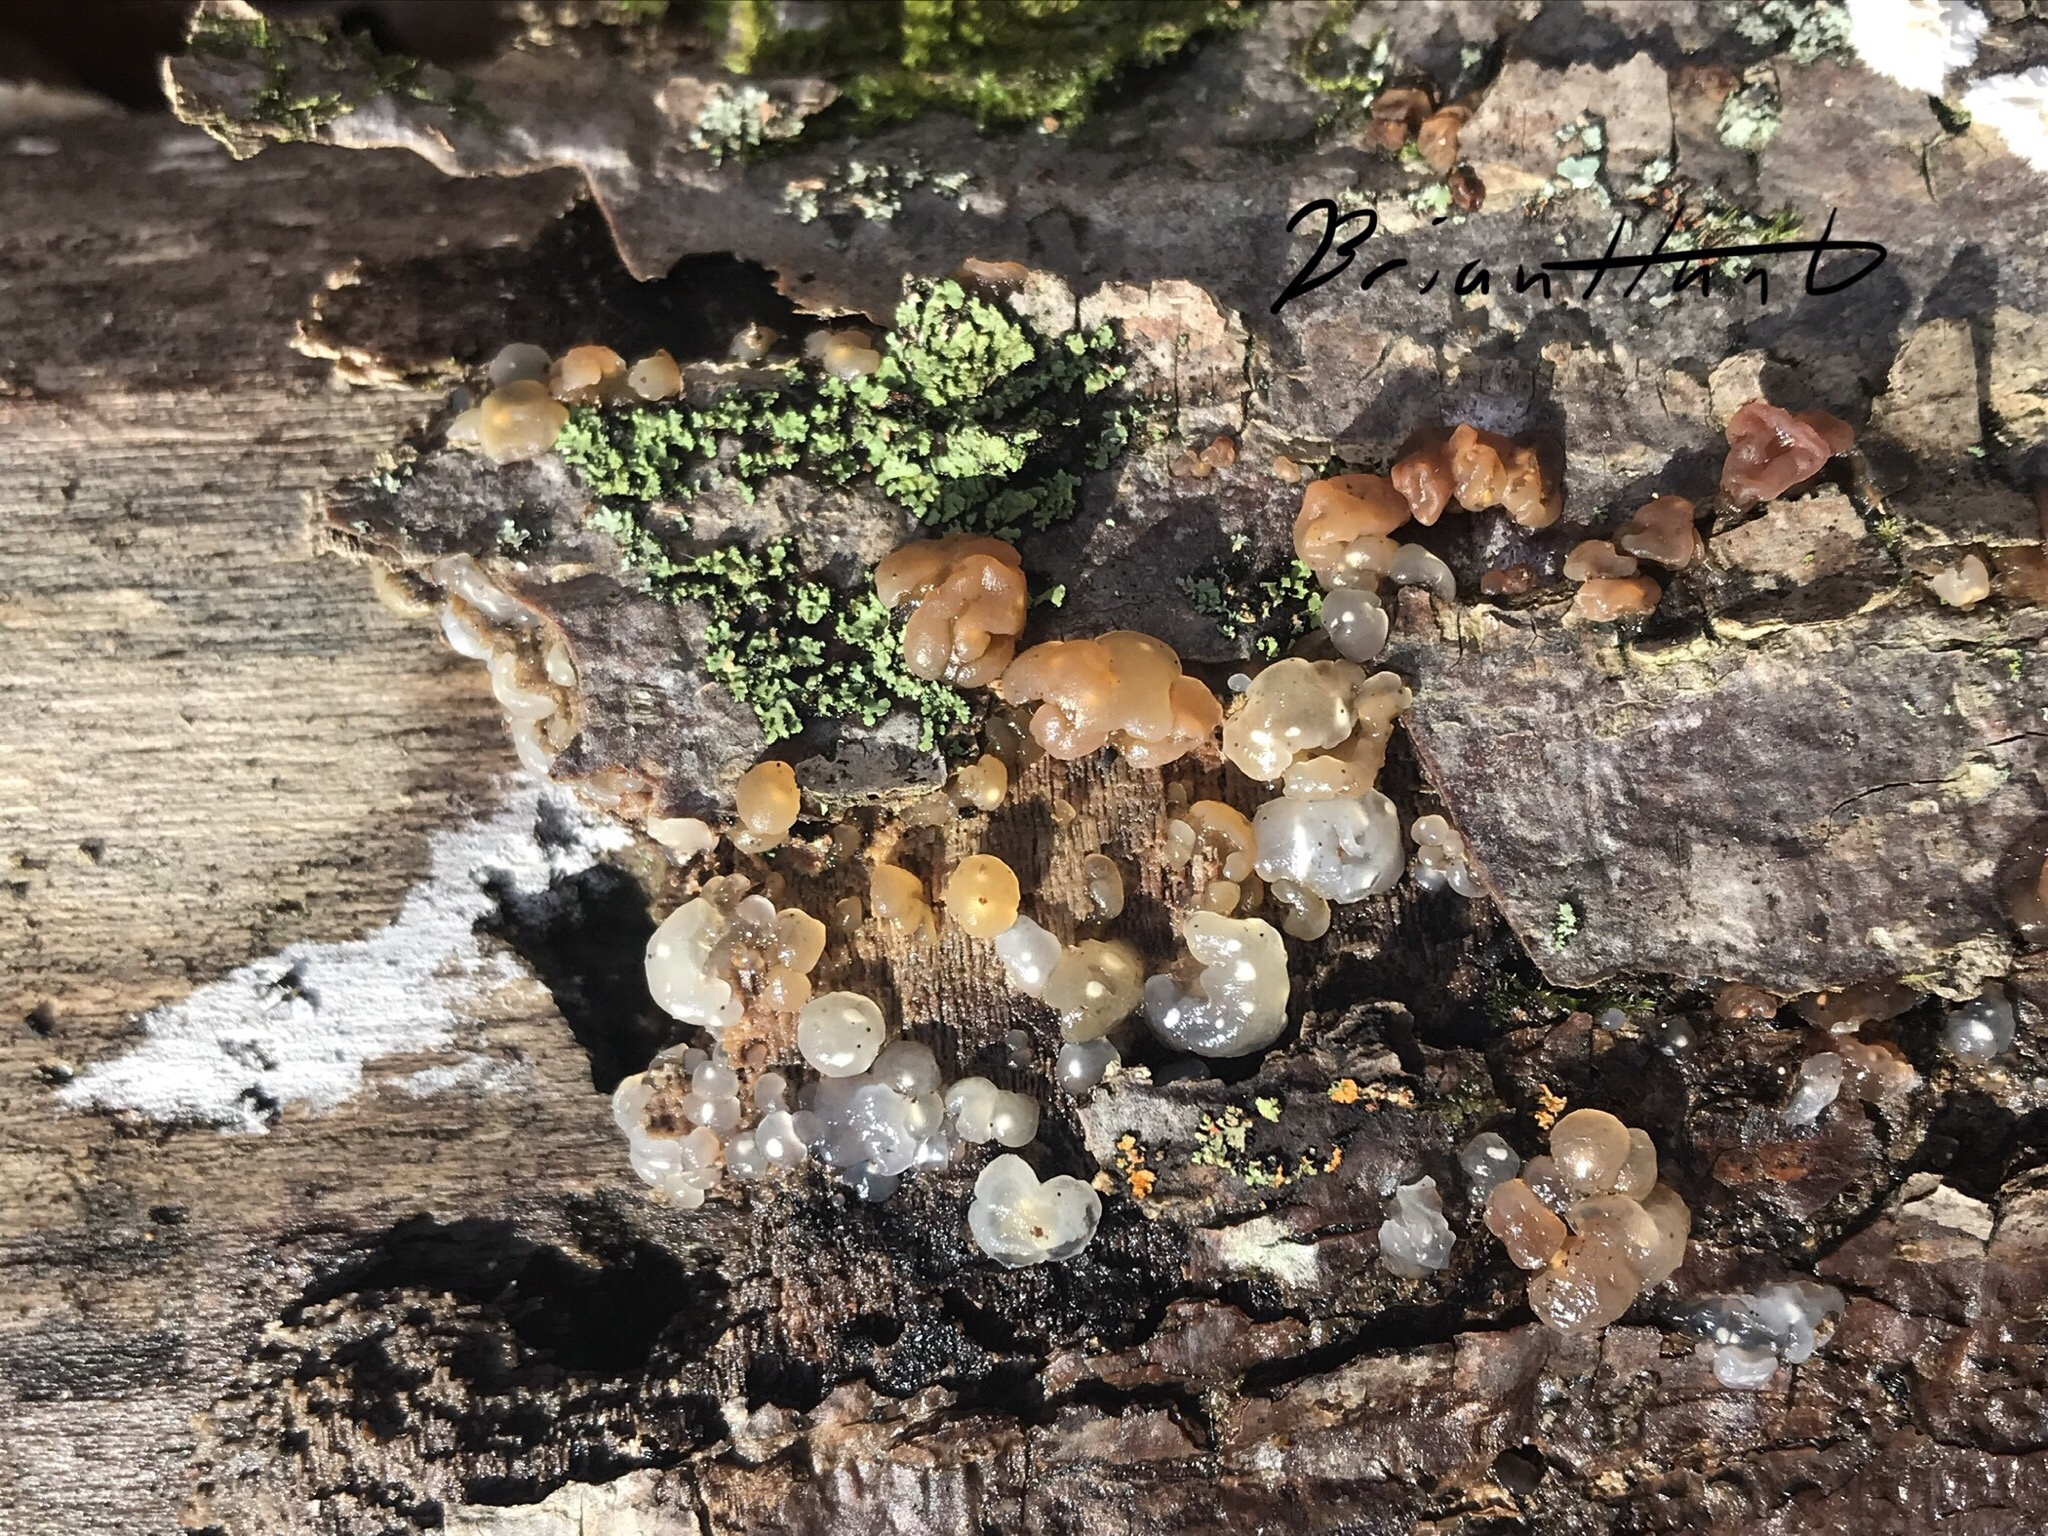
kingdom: Fungi
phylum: Basidiomycota
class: Agaricomycetes
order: Auriculariales
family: Hyaloriaceae
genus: Myxarium
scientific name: Myxarium nucleatum
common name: Crystal brain fungus
